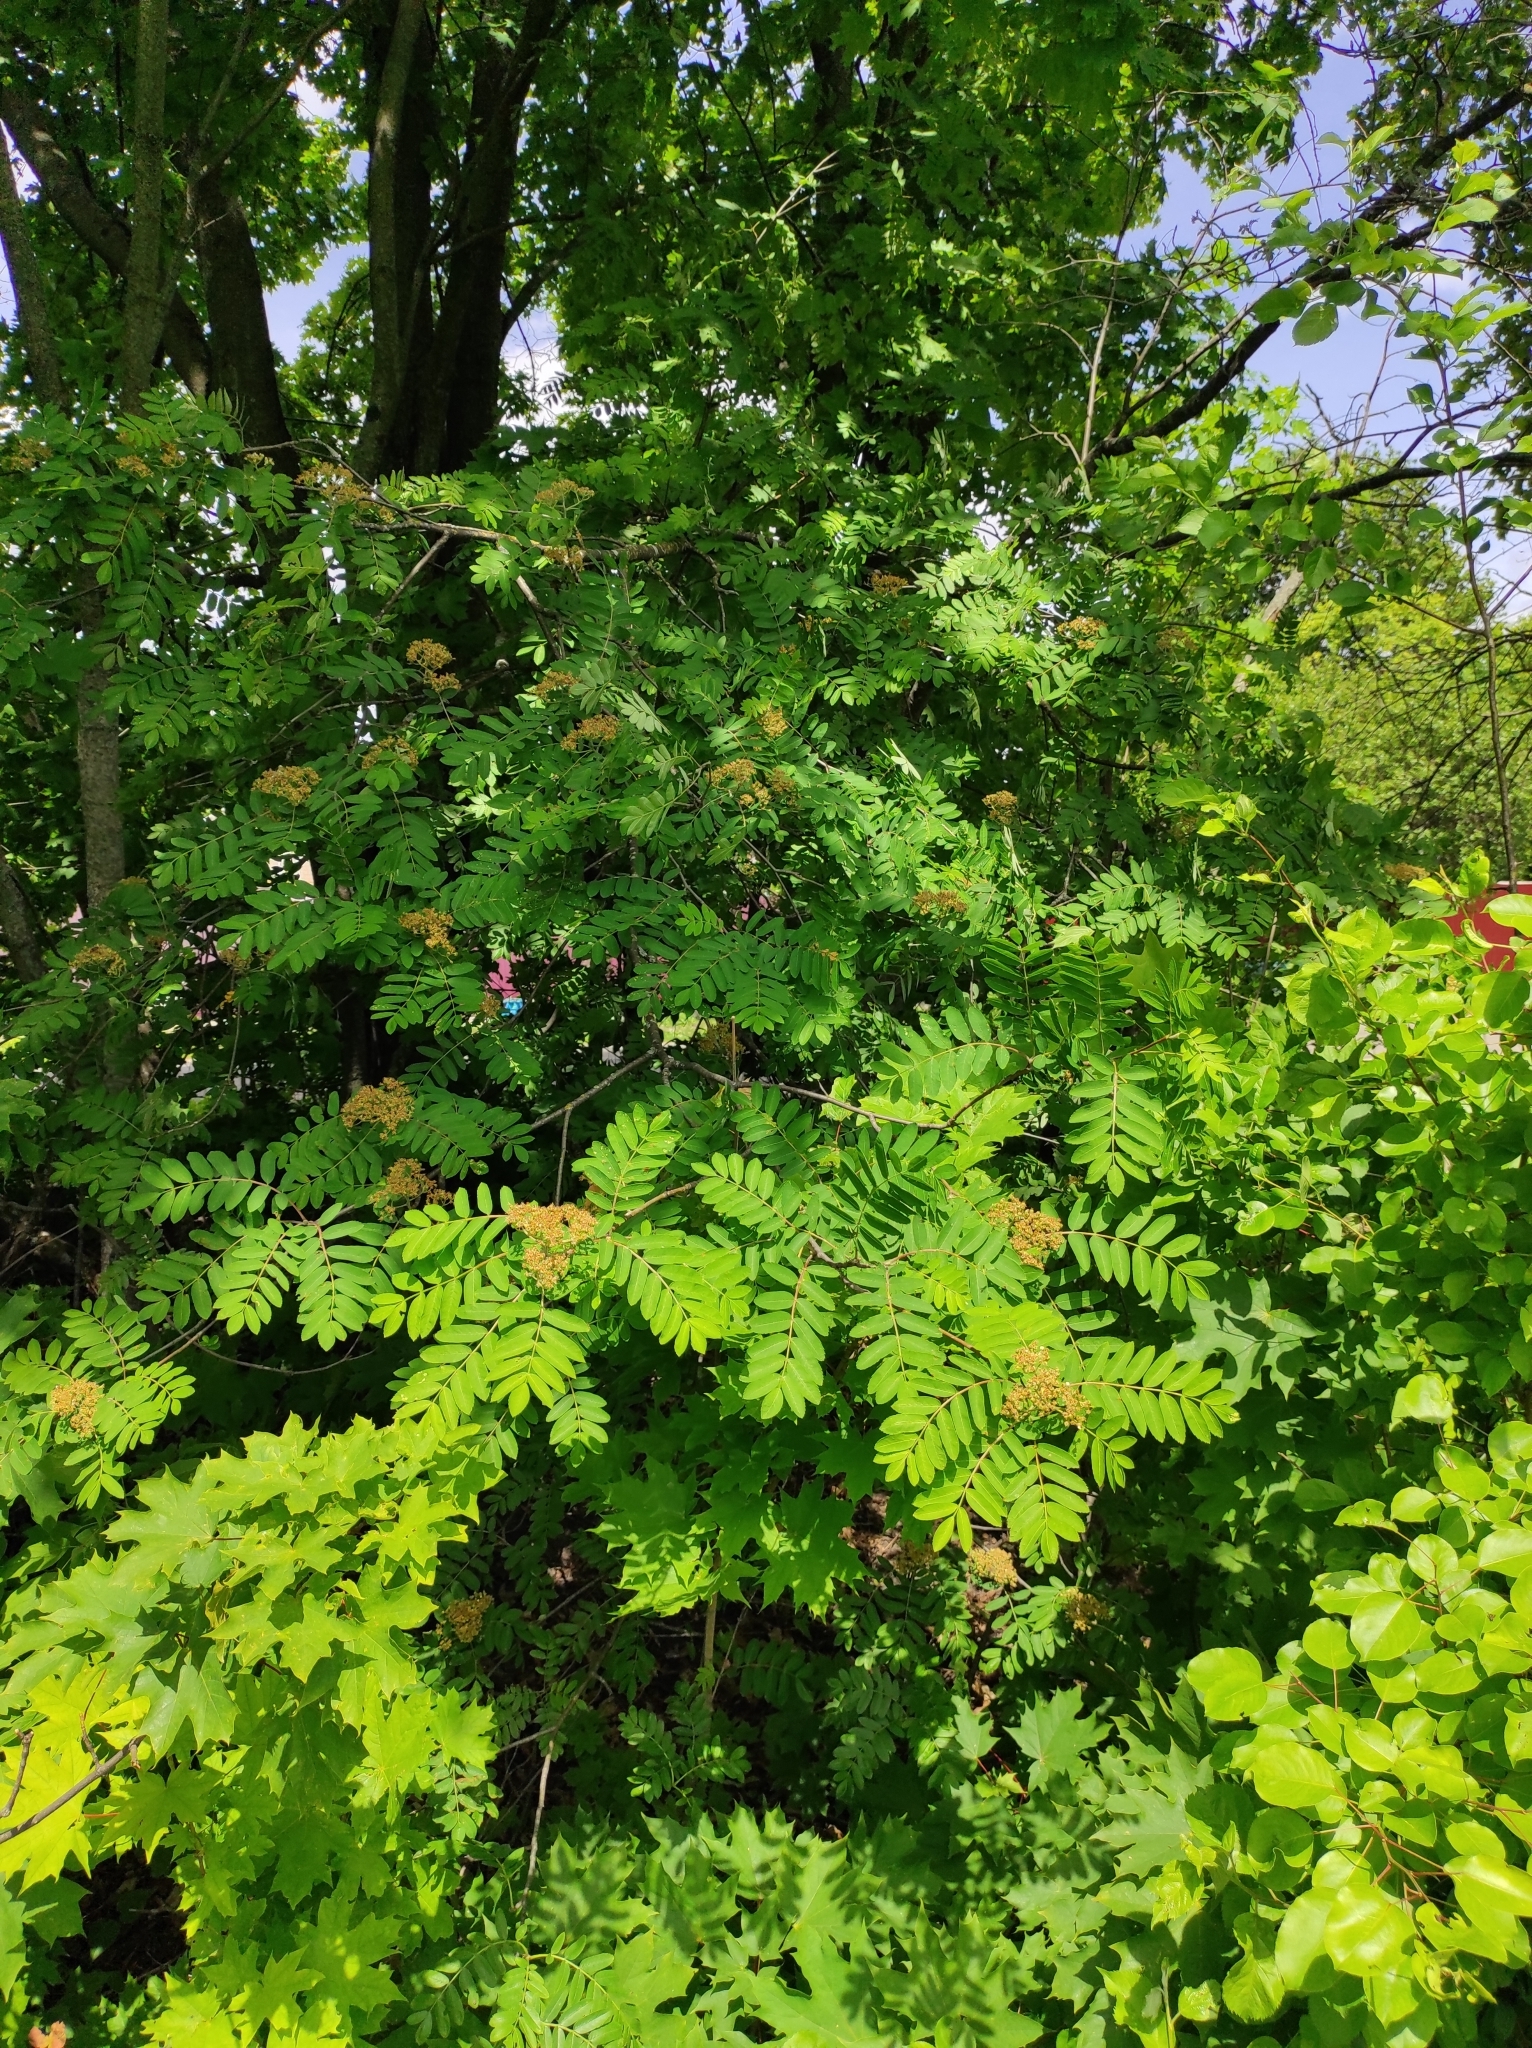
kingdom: Plantae
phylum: Tracheophyta
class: Magnoliopsida
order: Rosales
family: Rosaceae
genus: Sorbus
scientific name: Sorbus aucuparia
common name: Rowan
